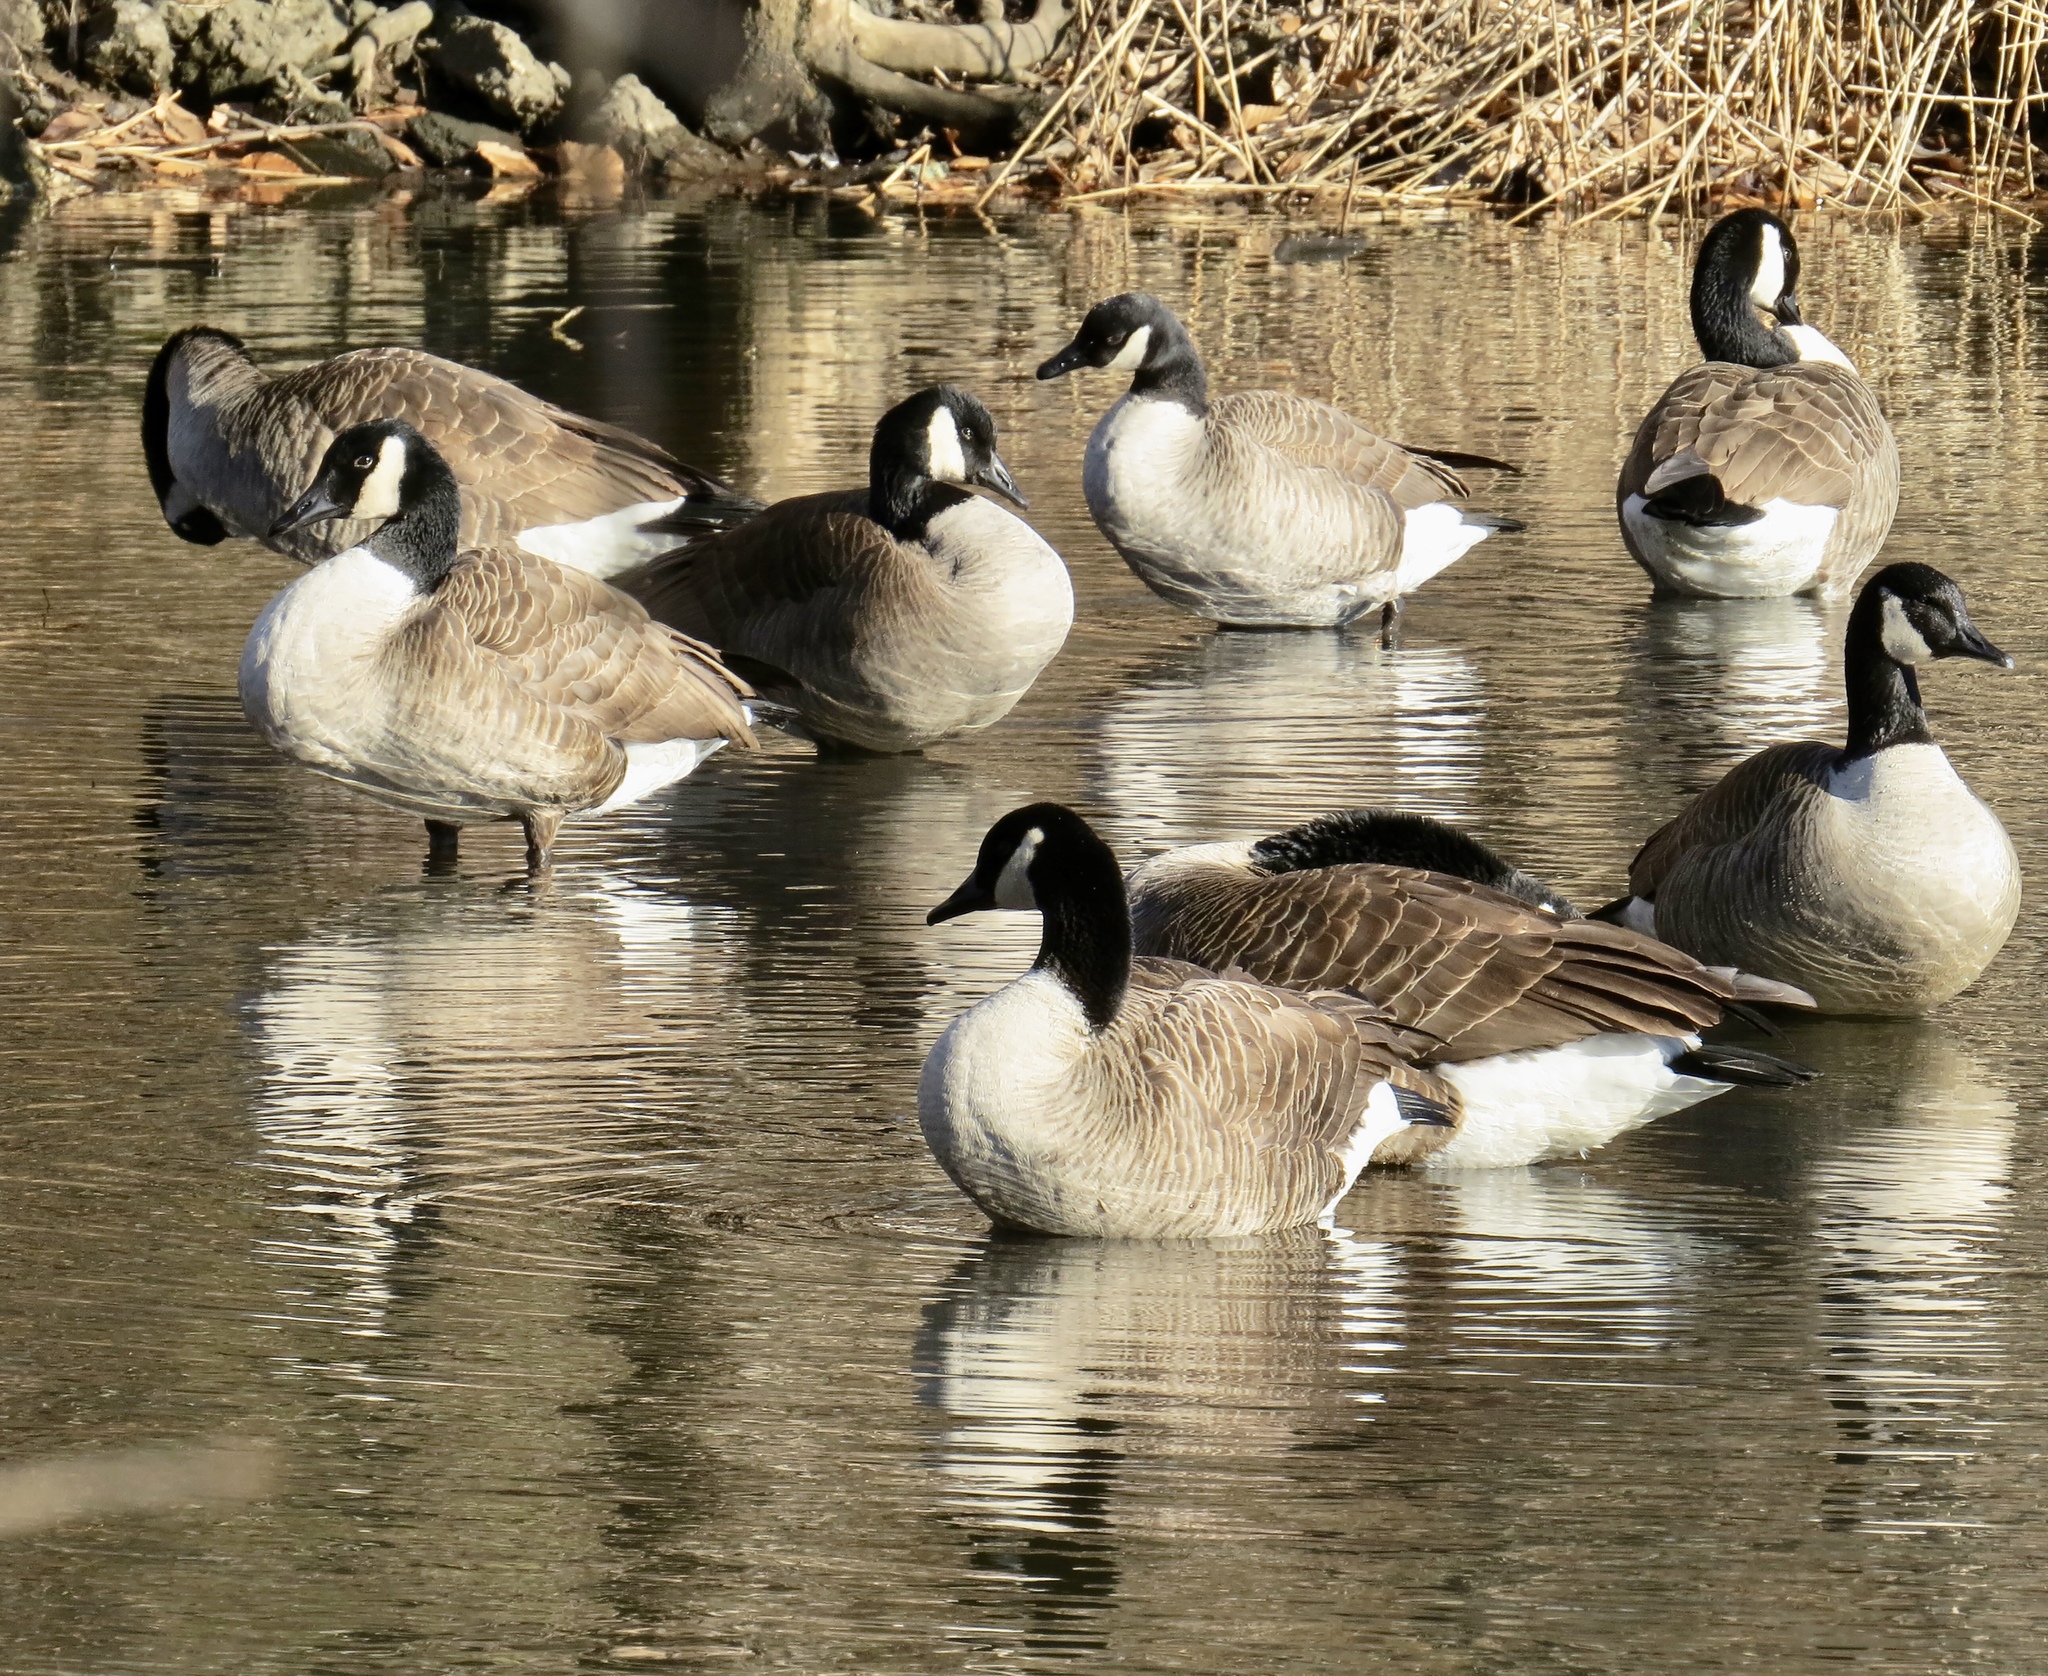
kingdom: Animalia
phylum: Chordata
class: Aves
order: Anseriformes
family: Anatidae
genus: Branta
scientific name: Branta canadensis
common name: Canada goose
